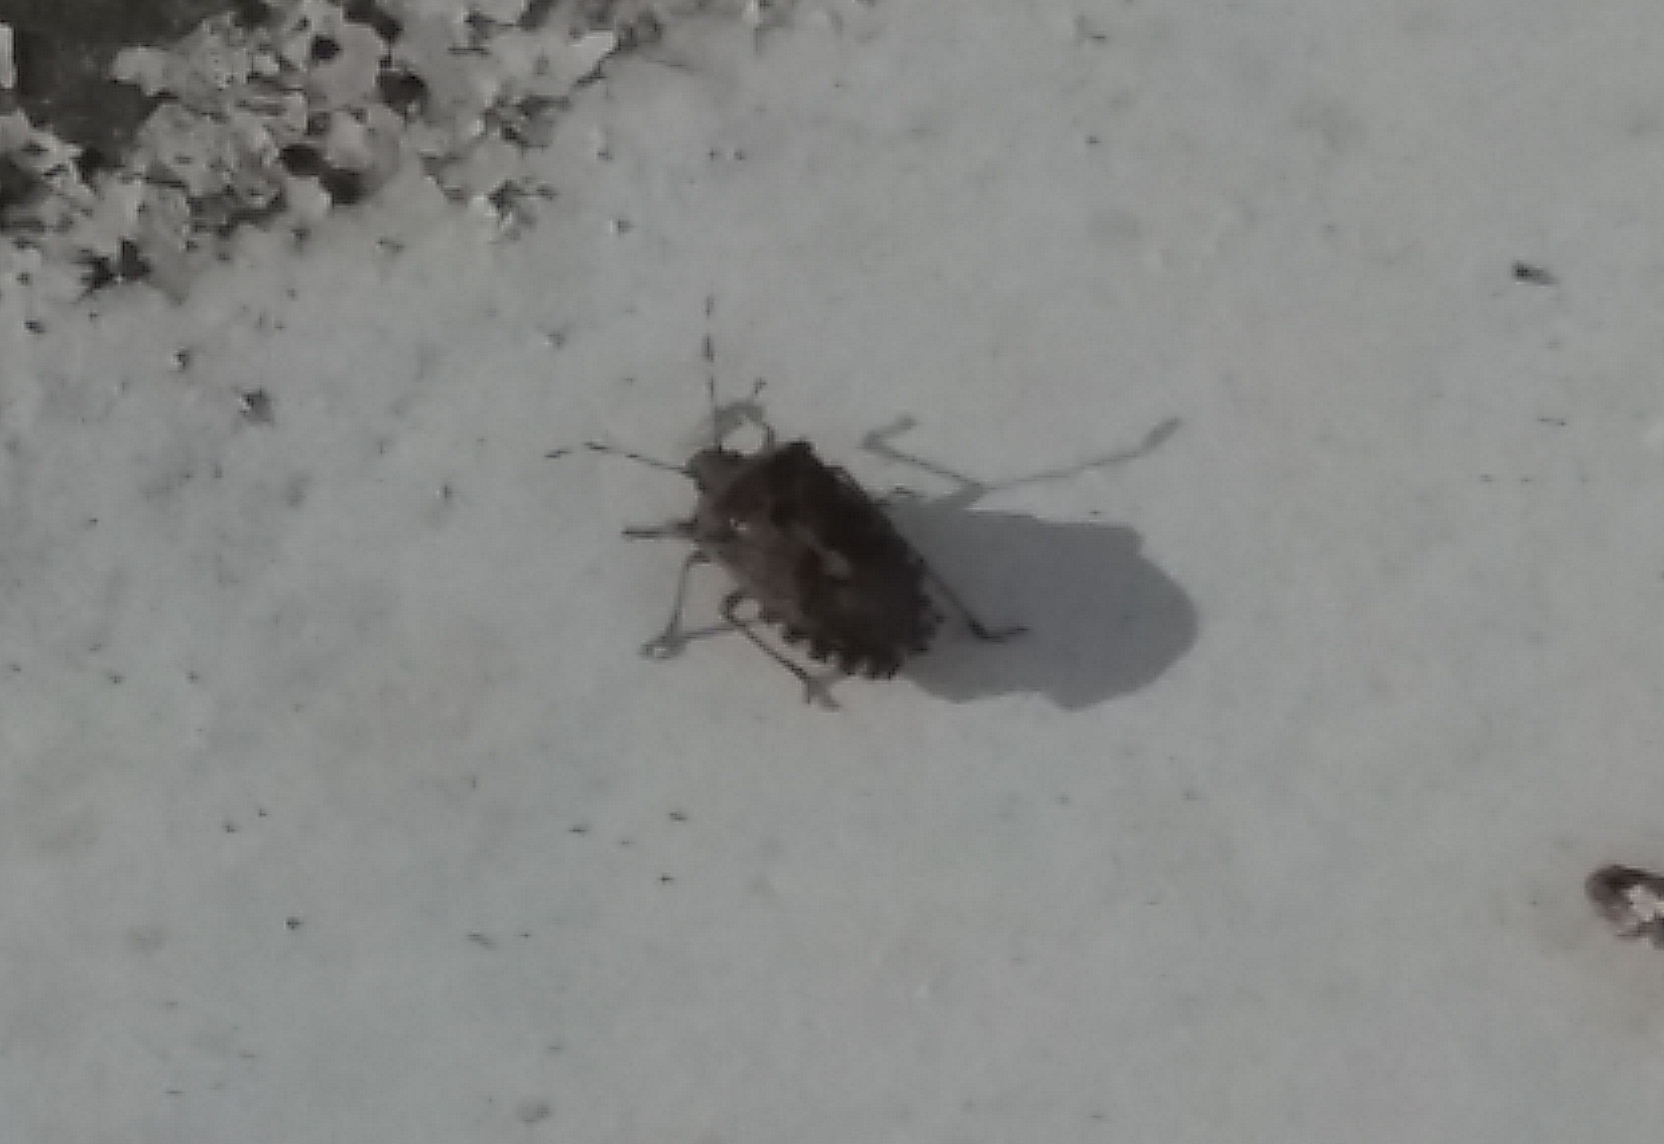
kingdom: Animalia
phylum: Arthropoda
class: Insecta
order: Hemiptera
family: Pentatomidae
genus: Rhaphigaster
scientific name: Rhaphigaster nebulosa
